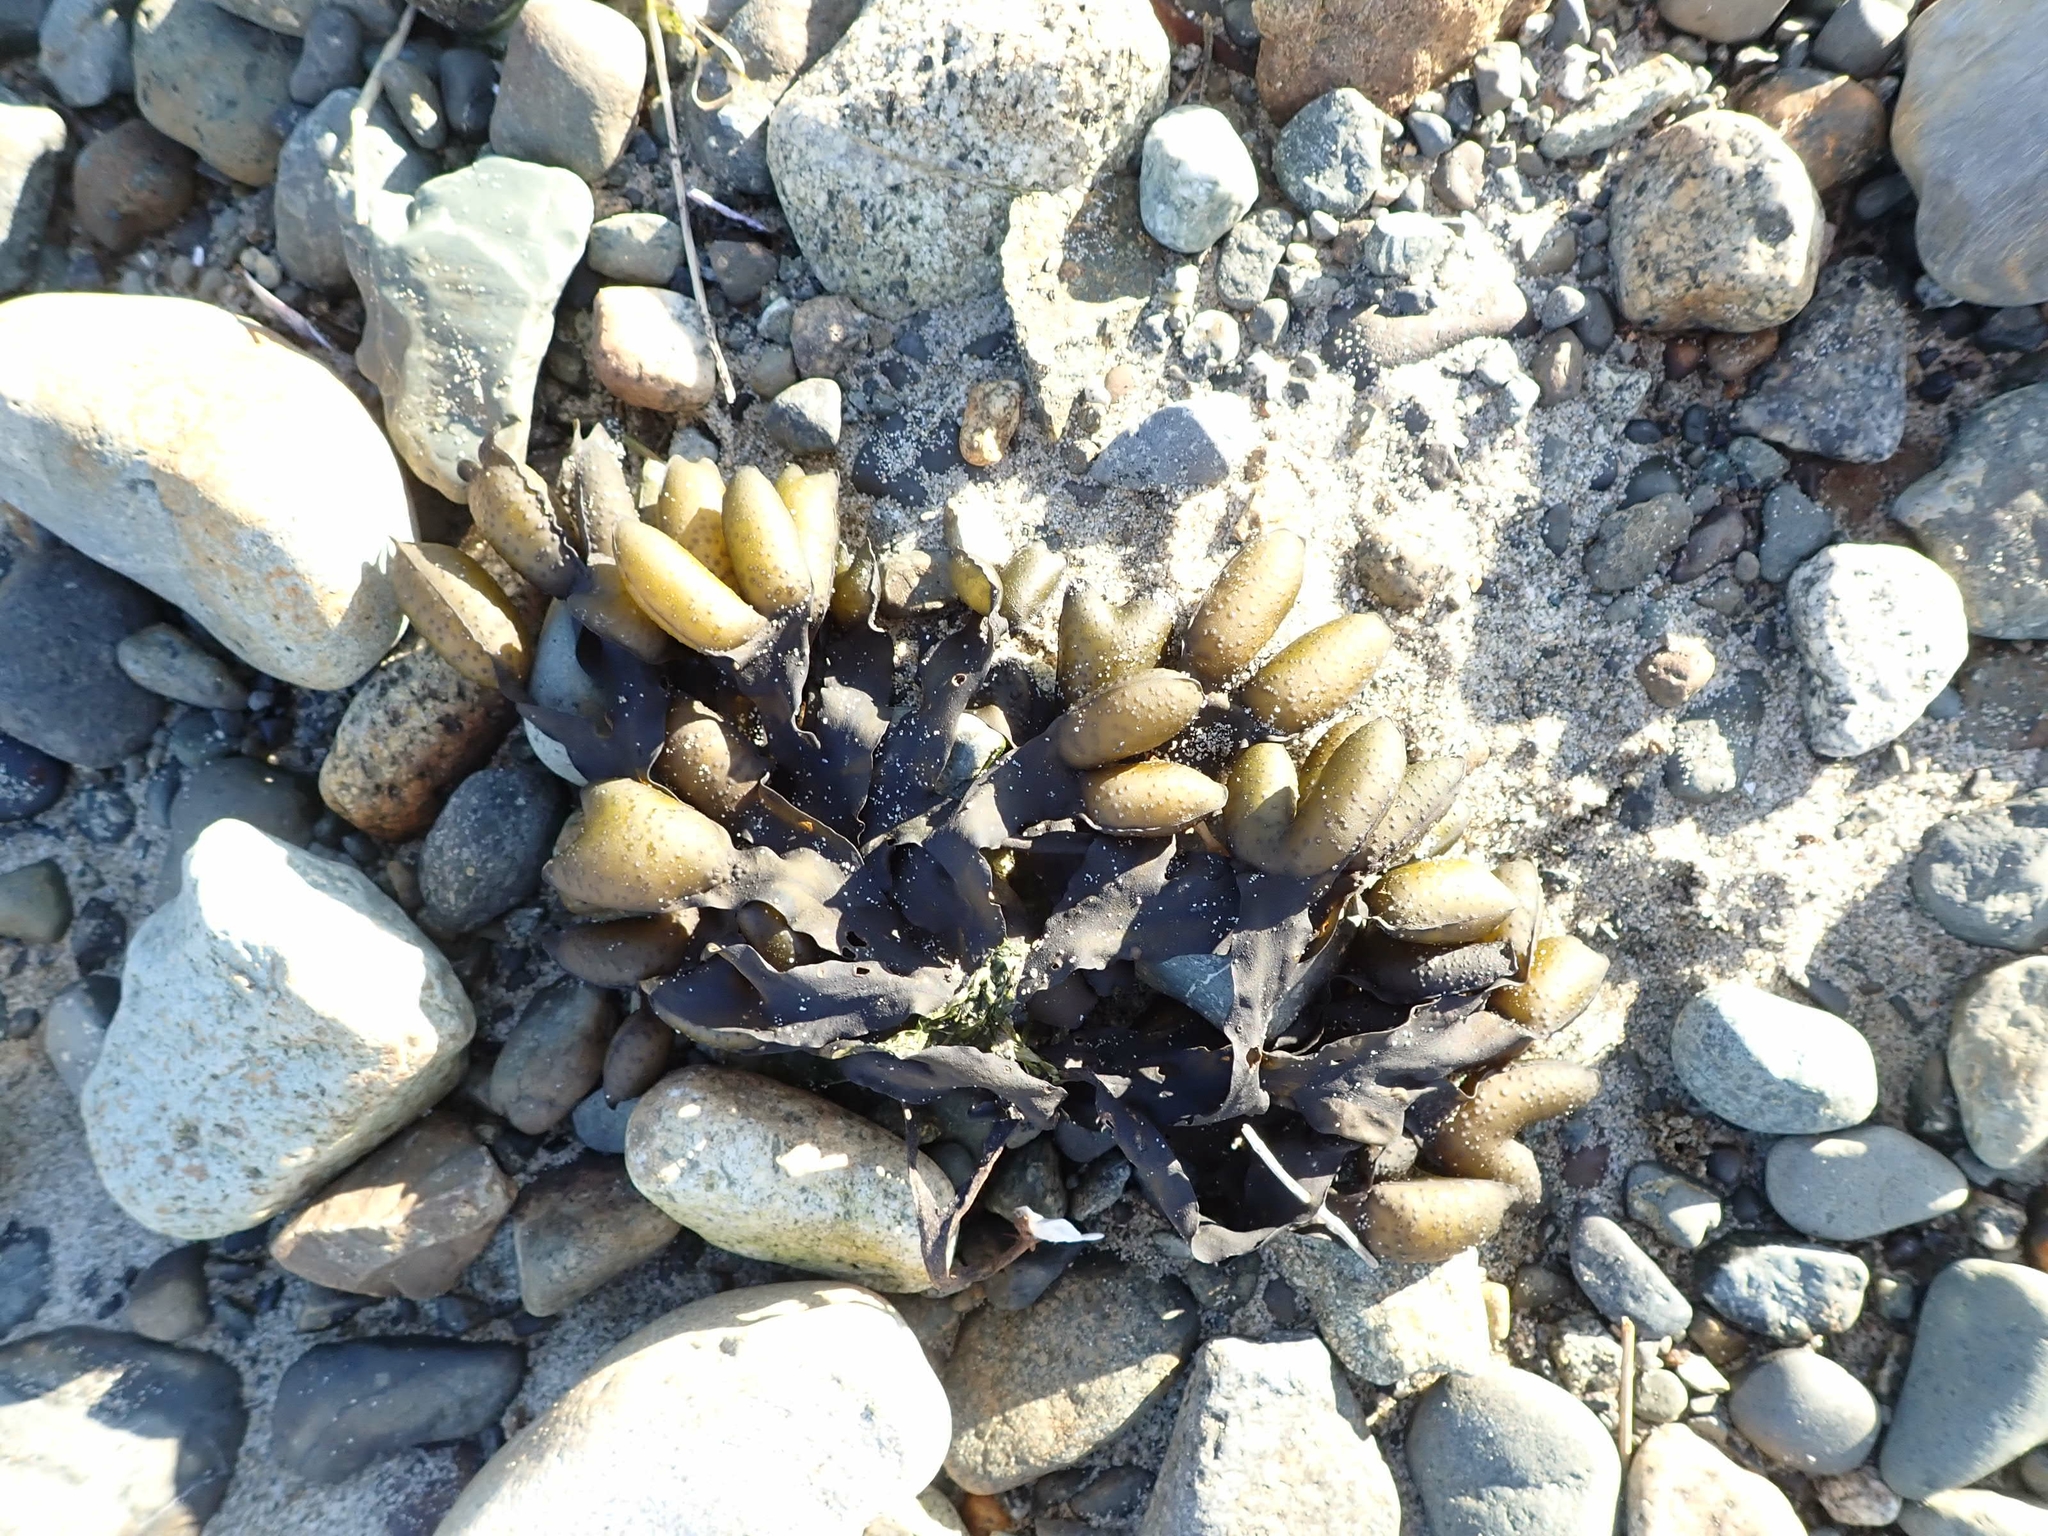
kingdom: Chromista
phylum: Ochrophyta
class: Phaeophyceae
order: Fucales
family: Fucaceae
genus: Fucus
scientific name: Fucus distichus
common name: Rockweed
